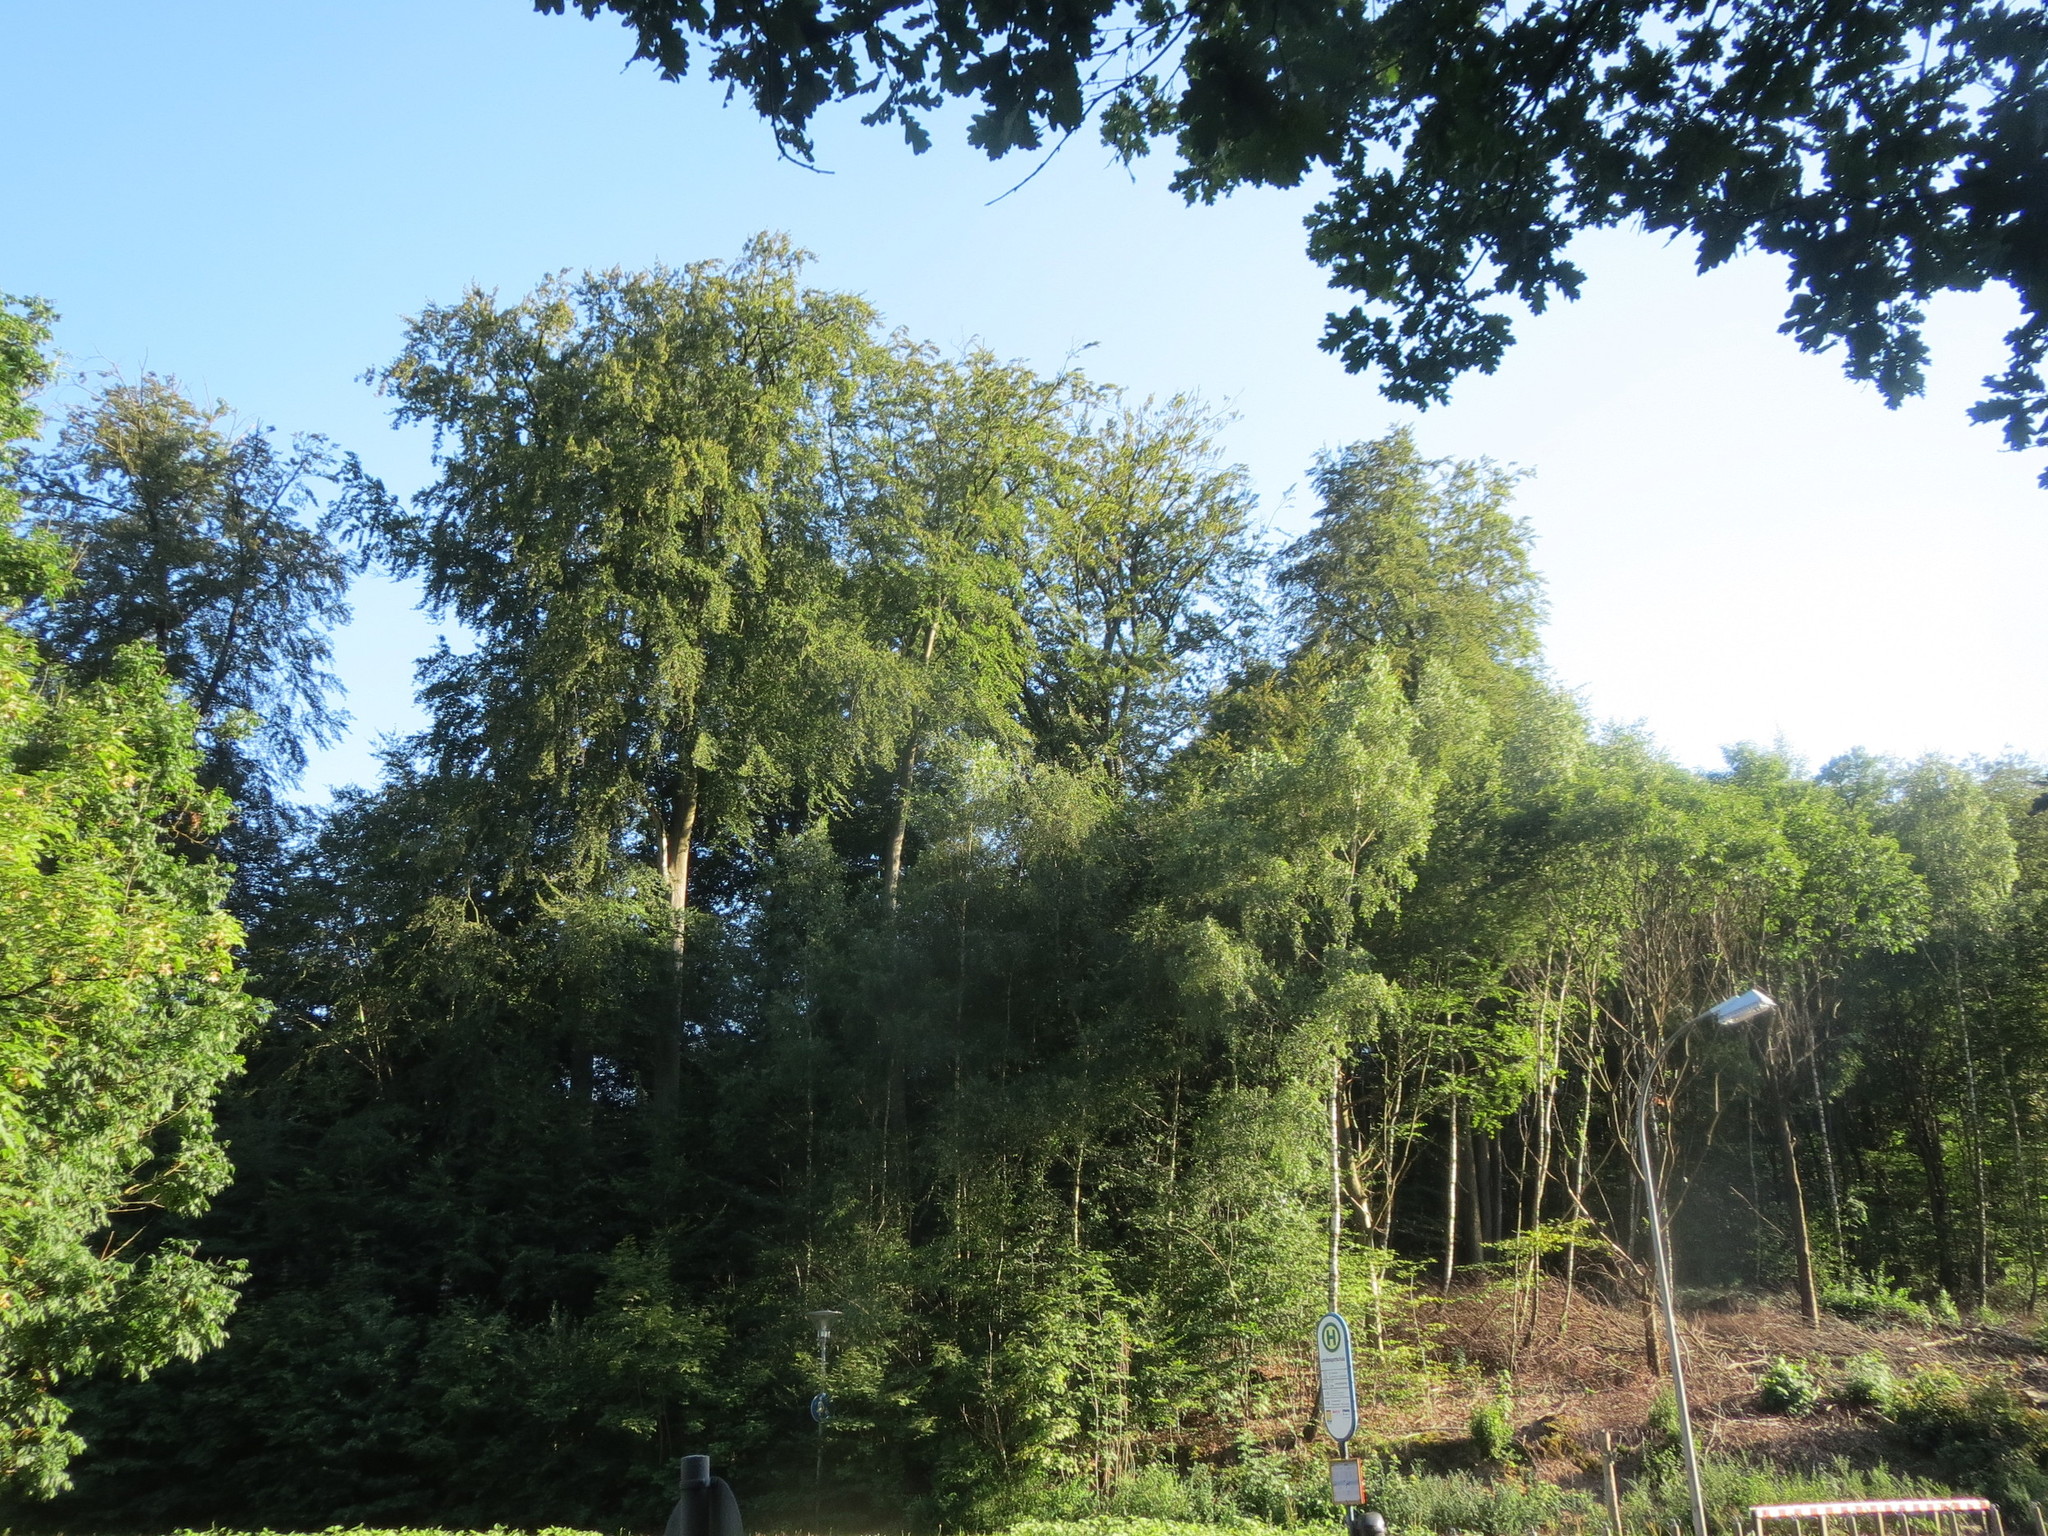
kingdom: Plantae
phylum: Tracheophyta
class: Magnoliopsida
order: Fagales
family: Fagaceae
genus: Fagus
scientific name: Fagus sylvatica
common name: Beech
